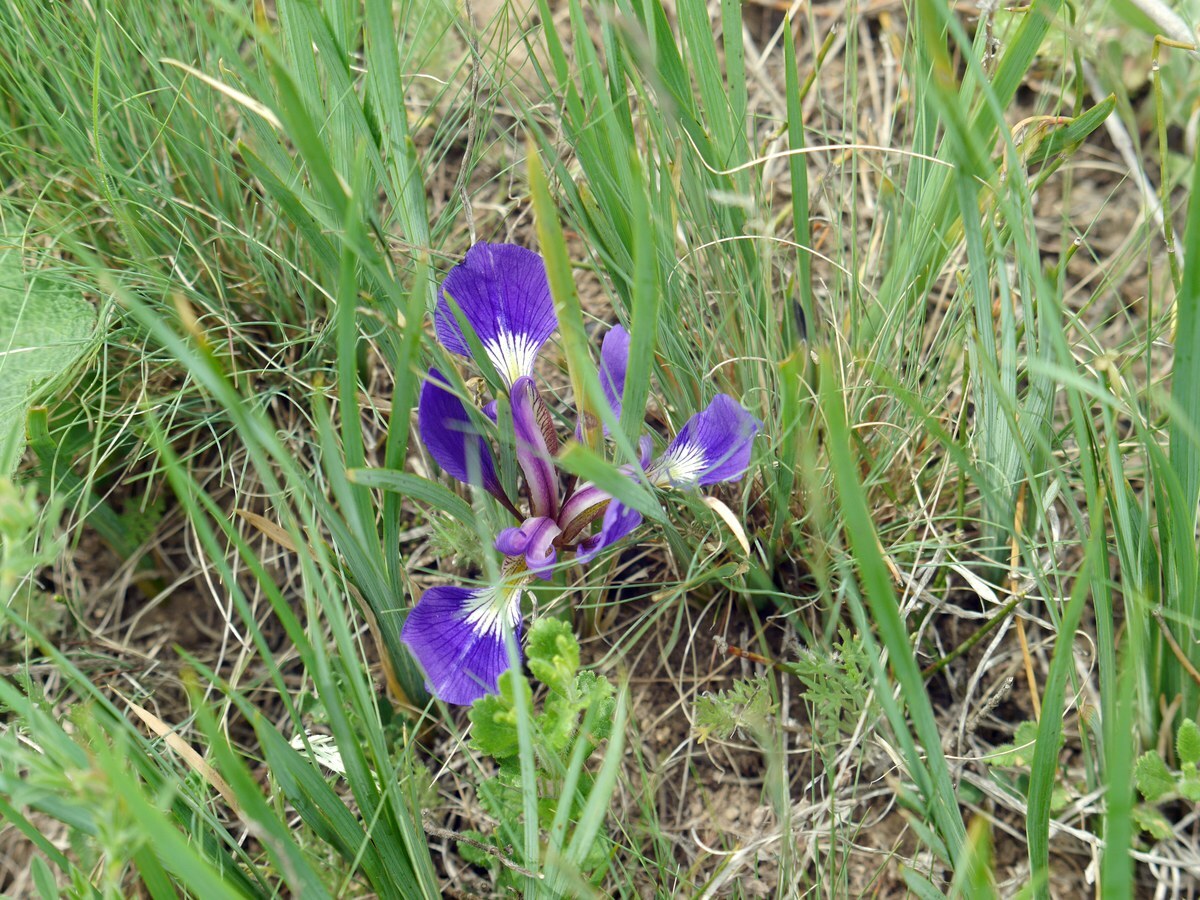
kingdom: Plantae
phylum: Tracheophyta
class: Liliopsida
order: Asparagales
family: Iridaceae
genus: Iris
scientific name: Iris pontica
